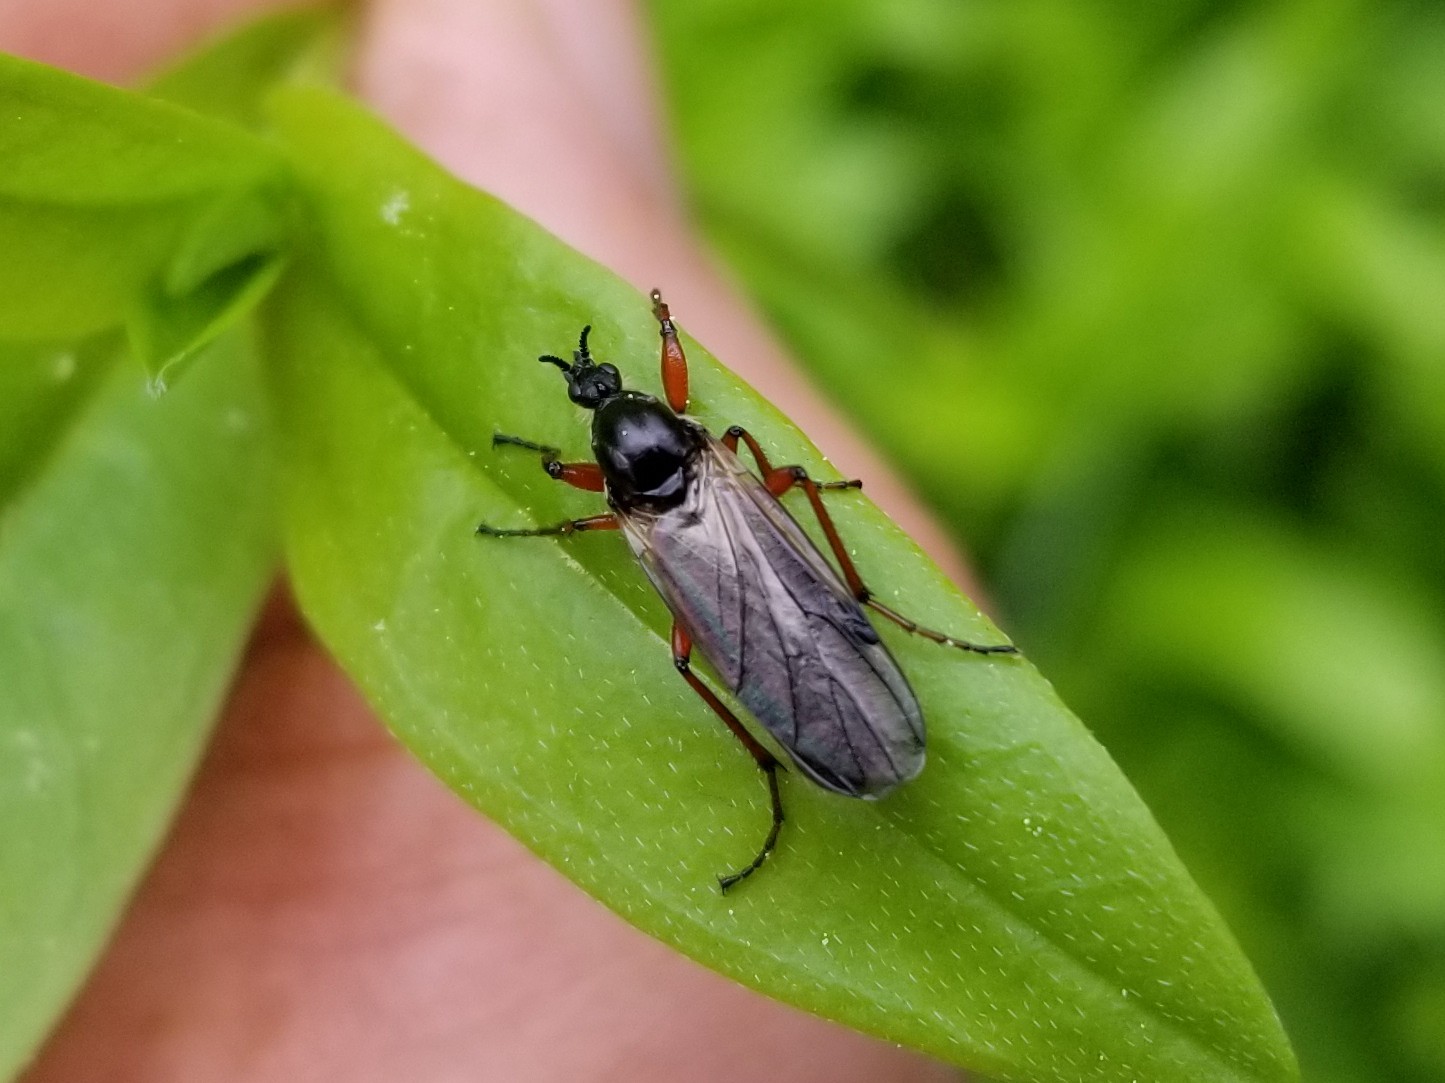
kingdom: Animalia
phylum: Arthropoda
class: Insecta
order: Diptera
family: Bibionidae
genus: Bibio
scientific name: Bibio vestitus
